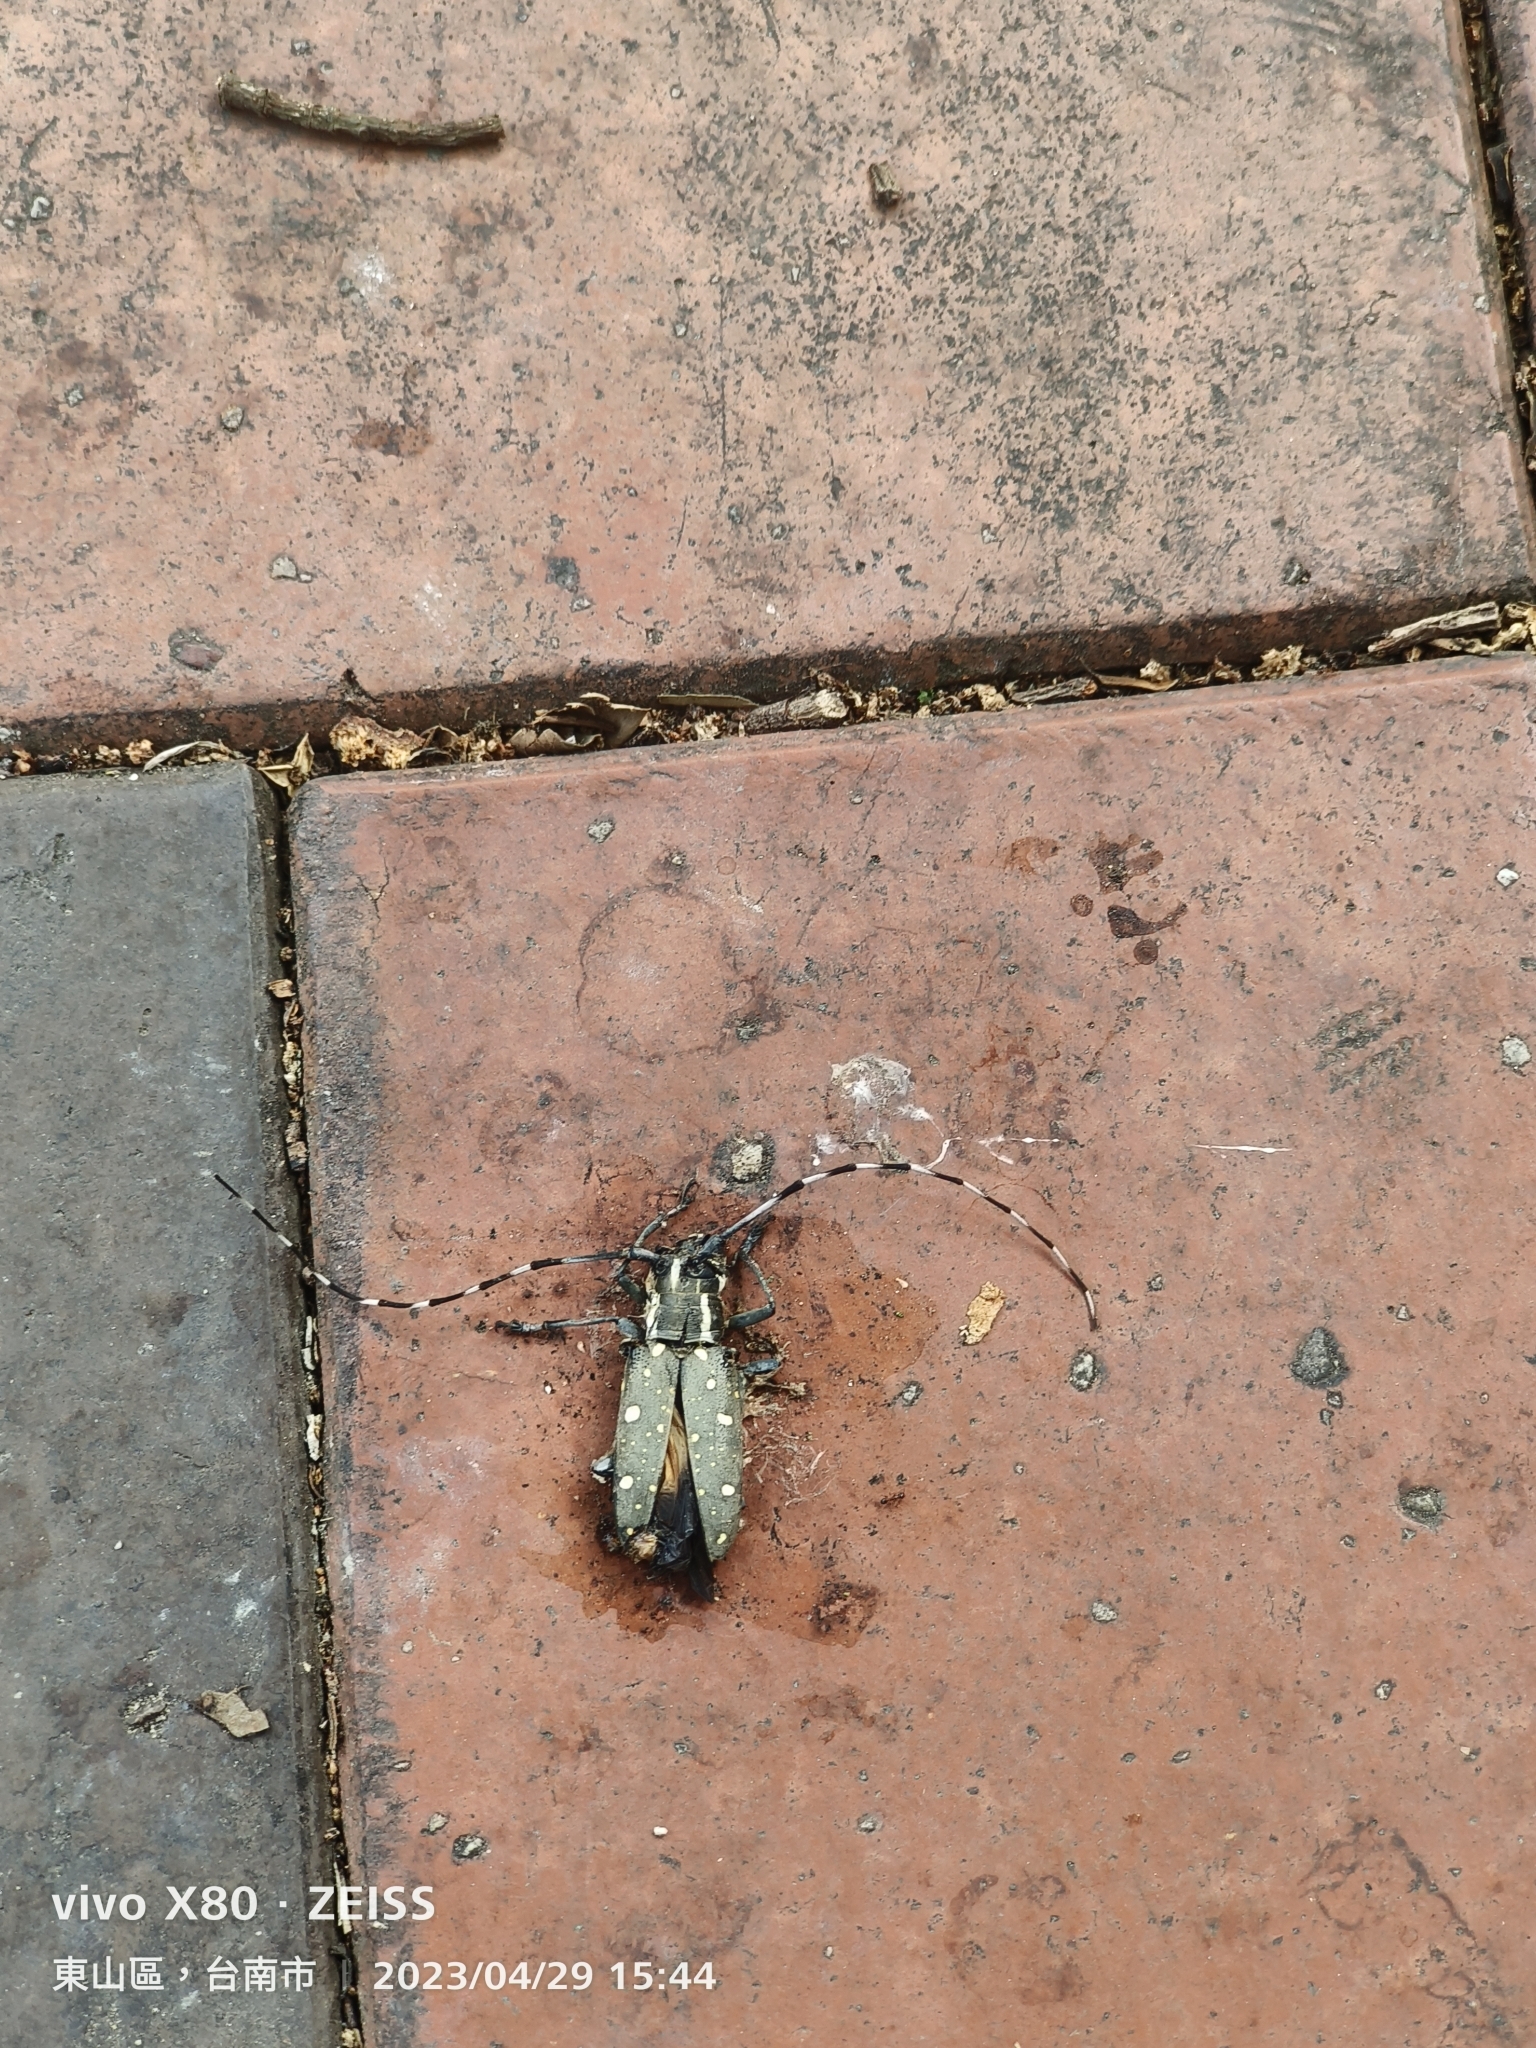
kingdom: Animalia
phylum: Arthropoda
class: Insecta
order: Coleoptera
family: Cerambycidae
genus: Psacothea
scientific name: Psacothea hilaris
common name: Yellow-spotted longicorn beetle
